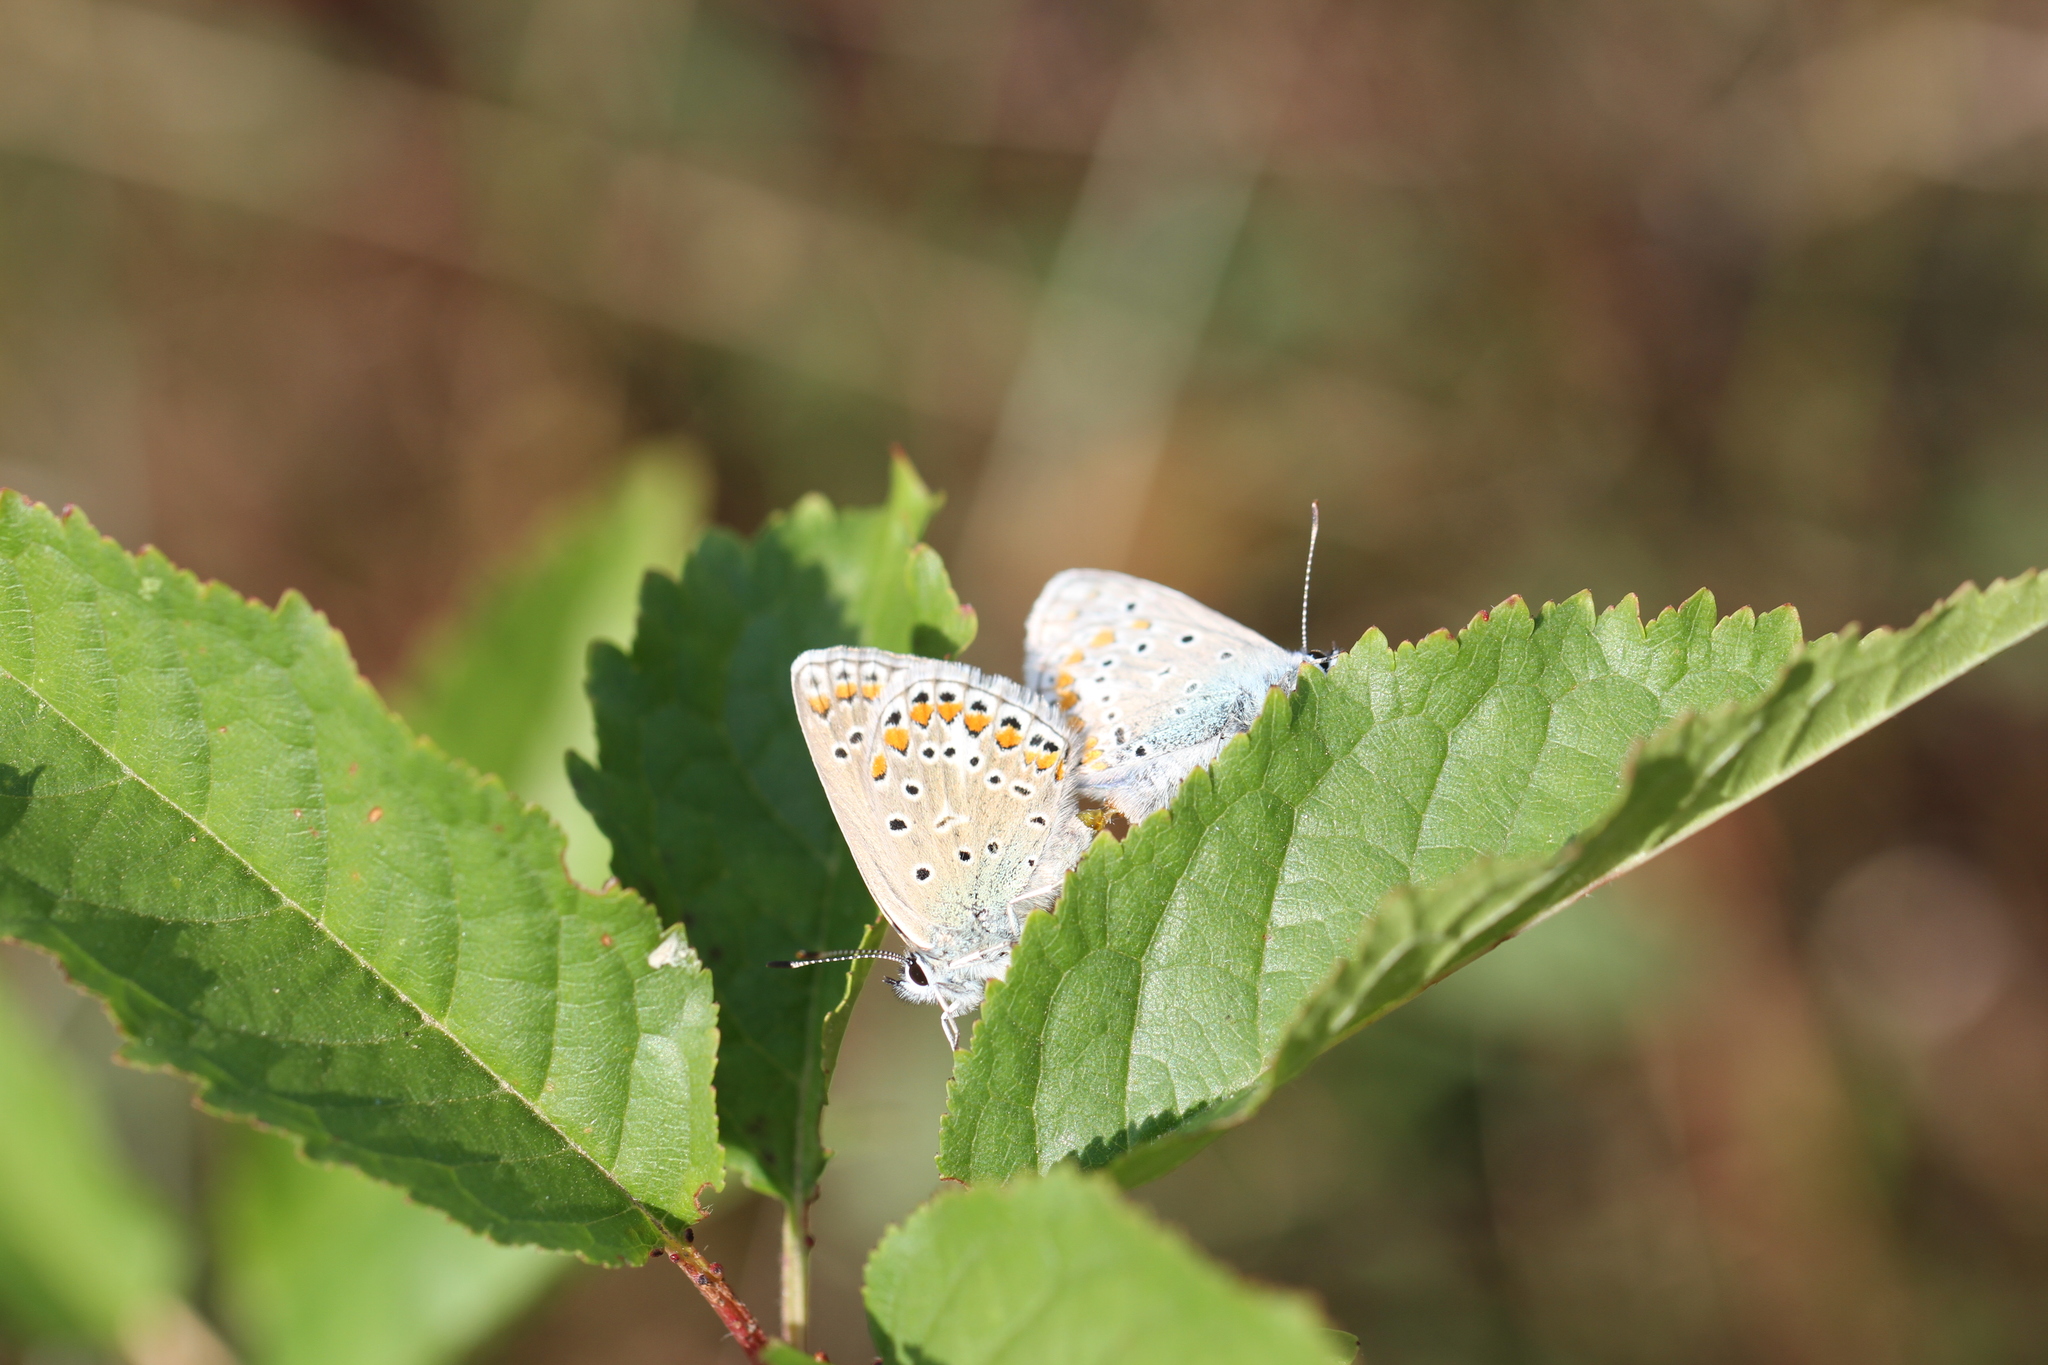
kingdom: Animalia
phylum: Arthropoda
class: Insecta
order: Lepidoptera
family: Lycaenidae
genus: Polyommatus
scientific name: Polyommatus icarus
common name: Common blue
